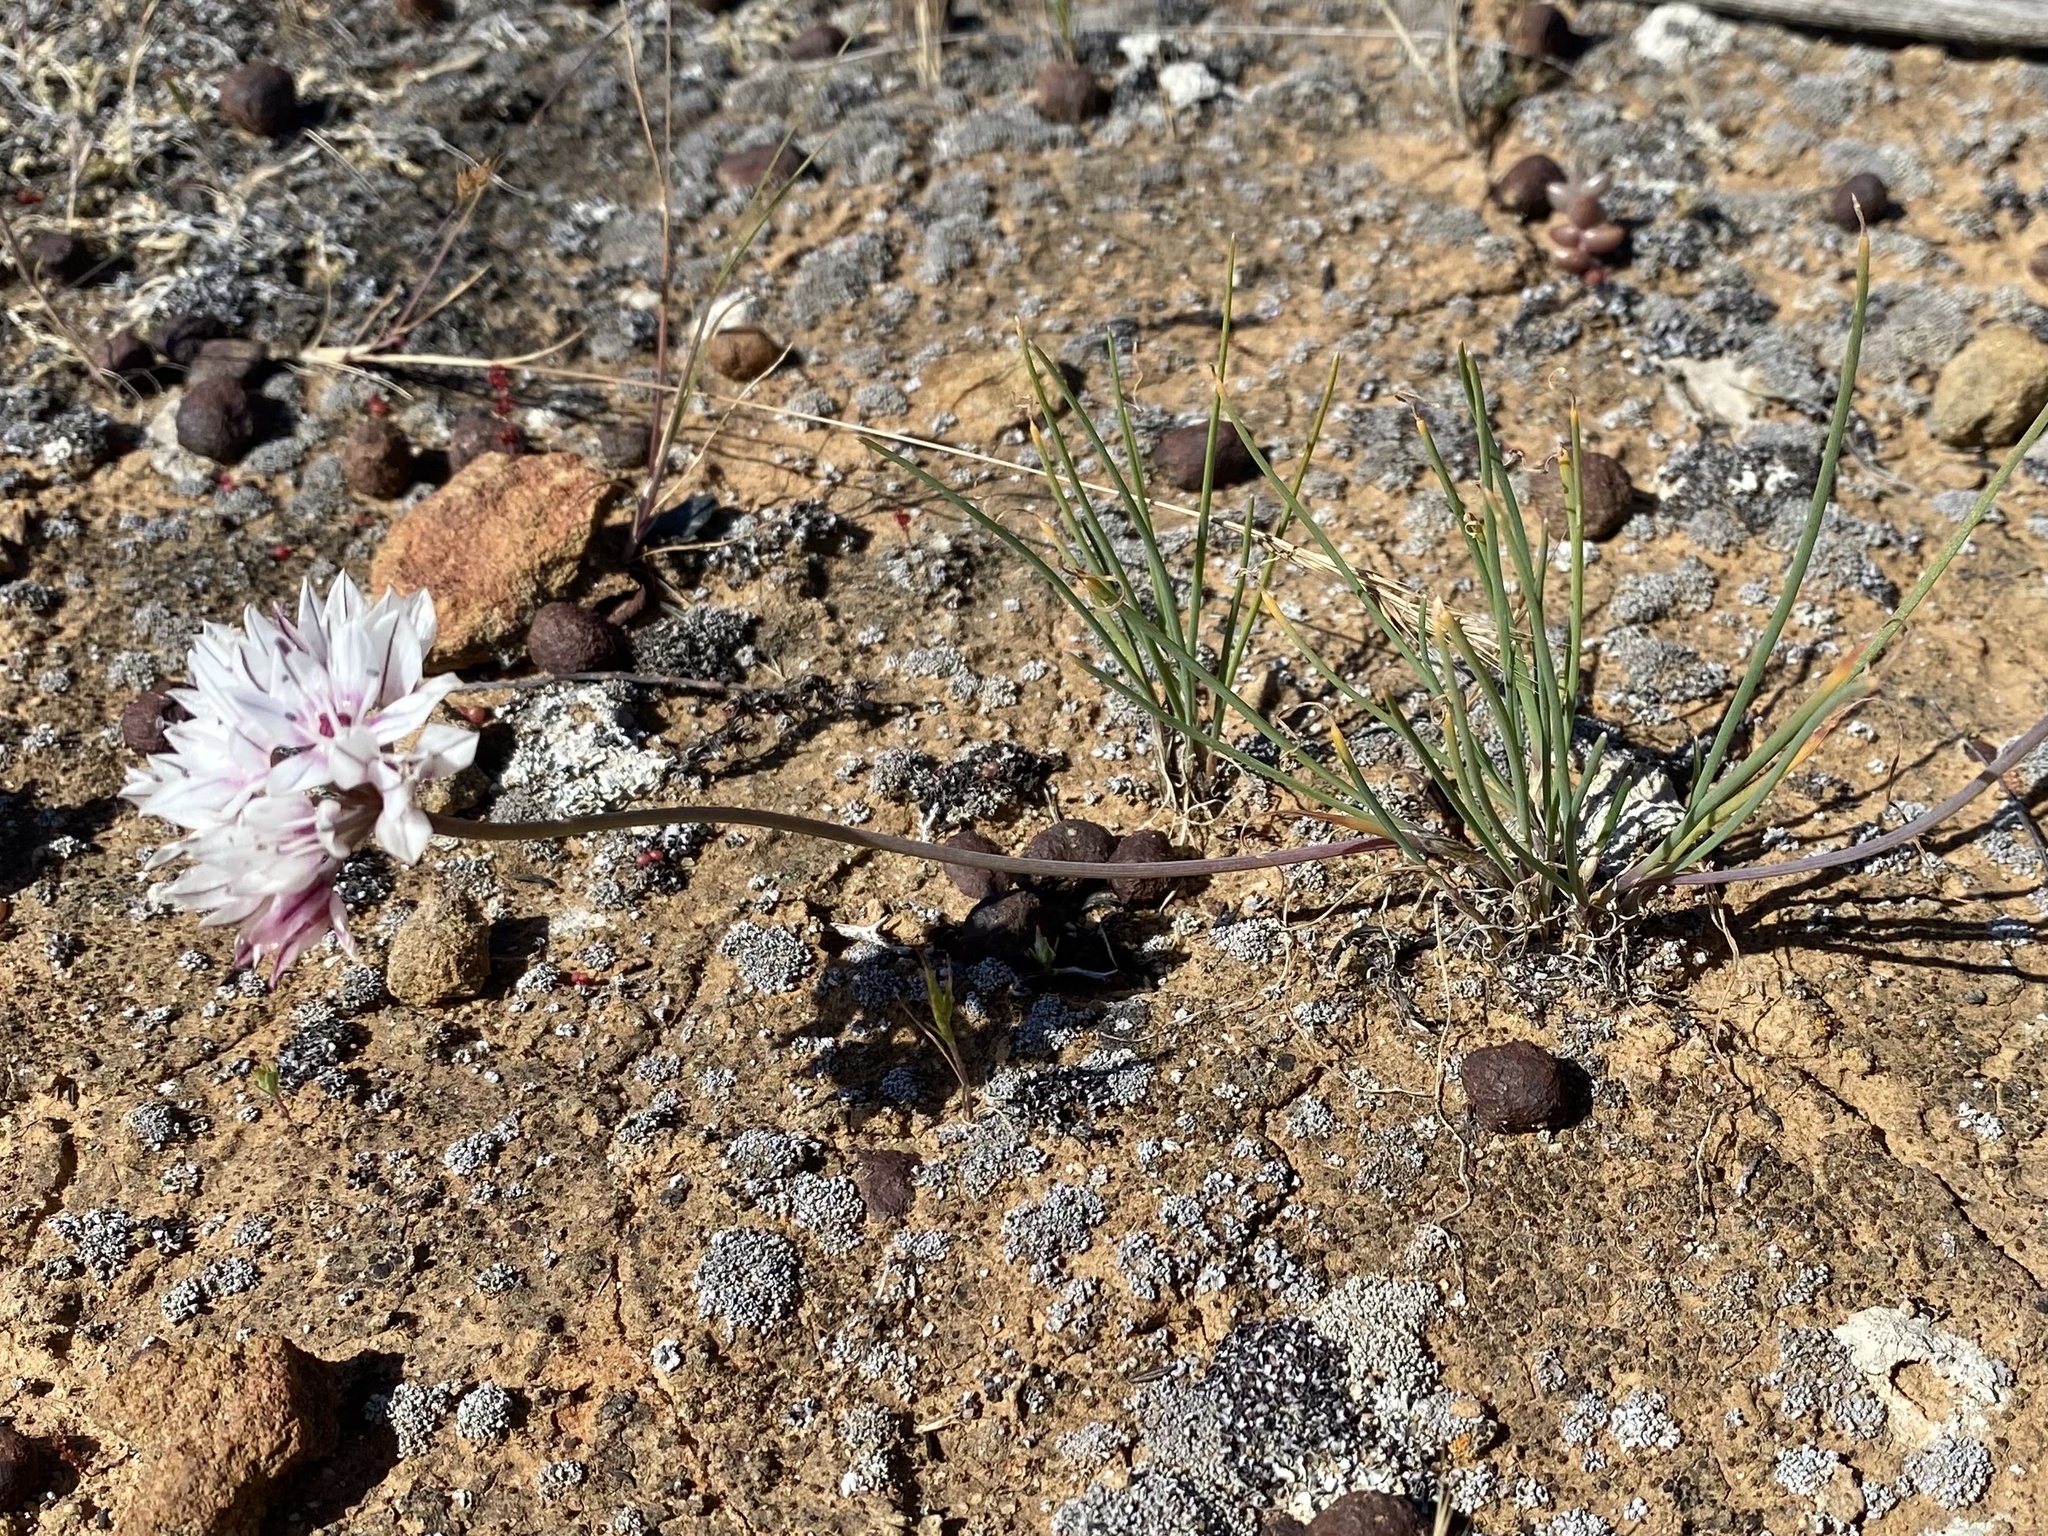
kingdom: Plantae
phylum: Tracheophyta
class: Liliopsida
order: Asparagales
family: Amaryllidaceae
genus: Allium
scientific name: Allium haematochiton
